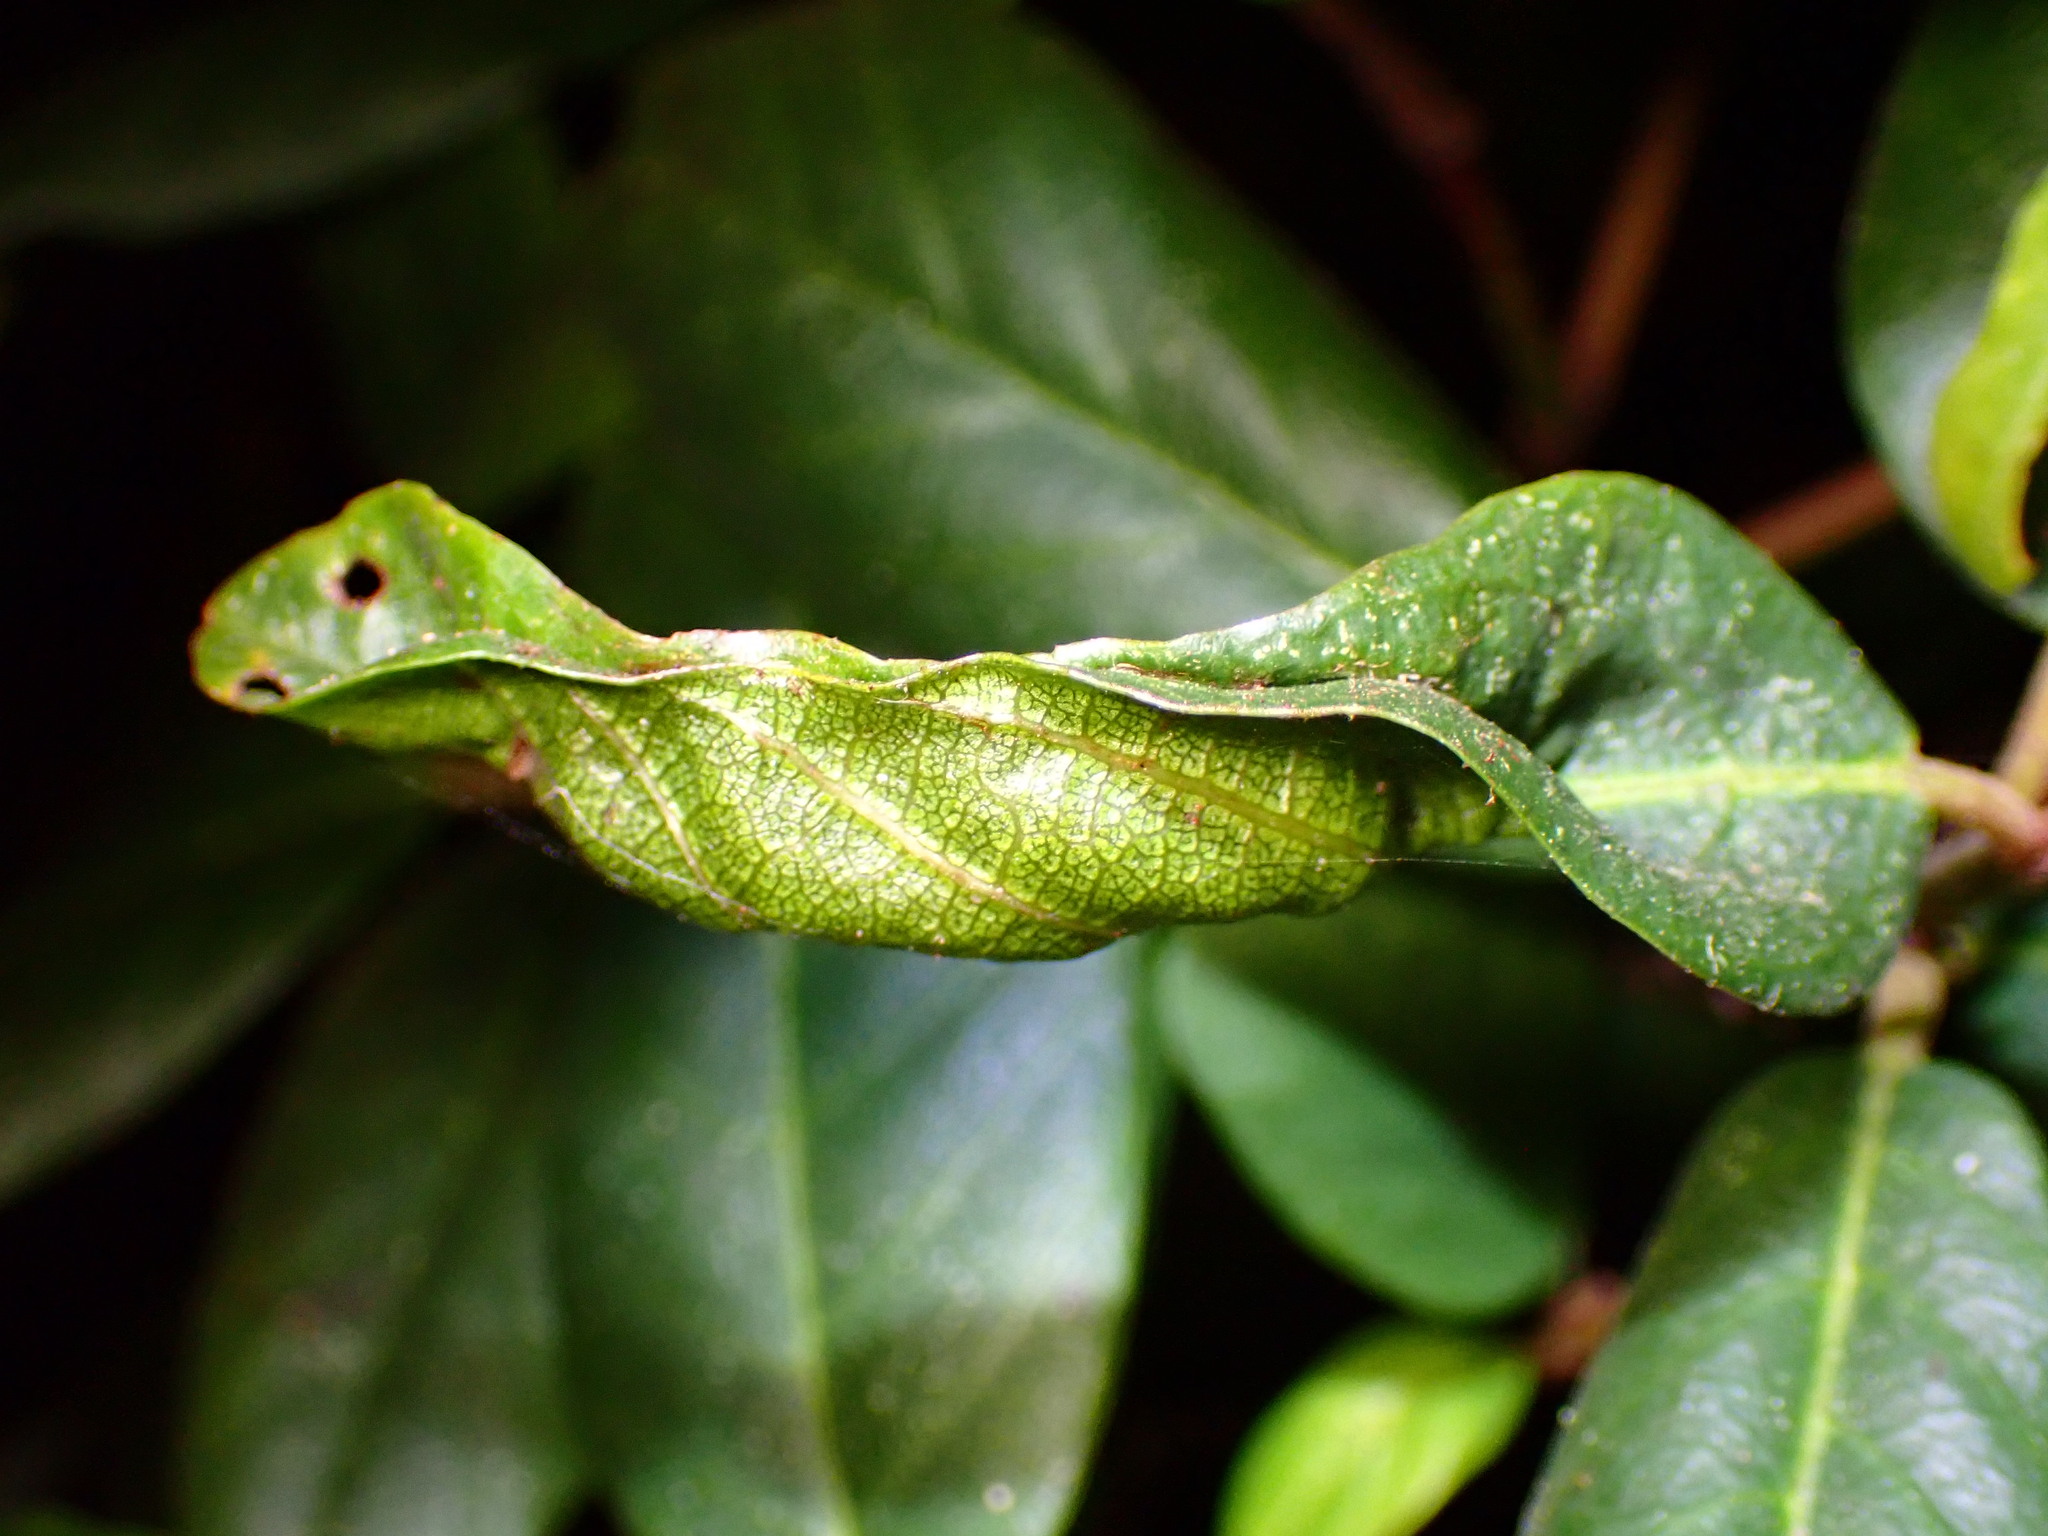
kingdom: Animalia
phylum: Arthropoda
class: Insecta
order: Lepidoptera
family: Cosmopterigidae
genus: Sorhagenia
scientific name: Sorhagenia nimbosus
